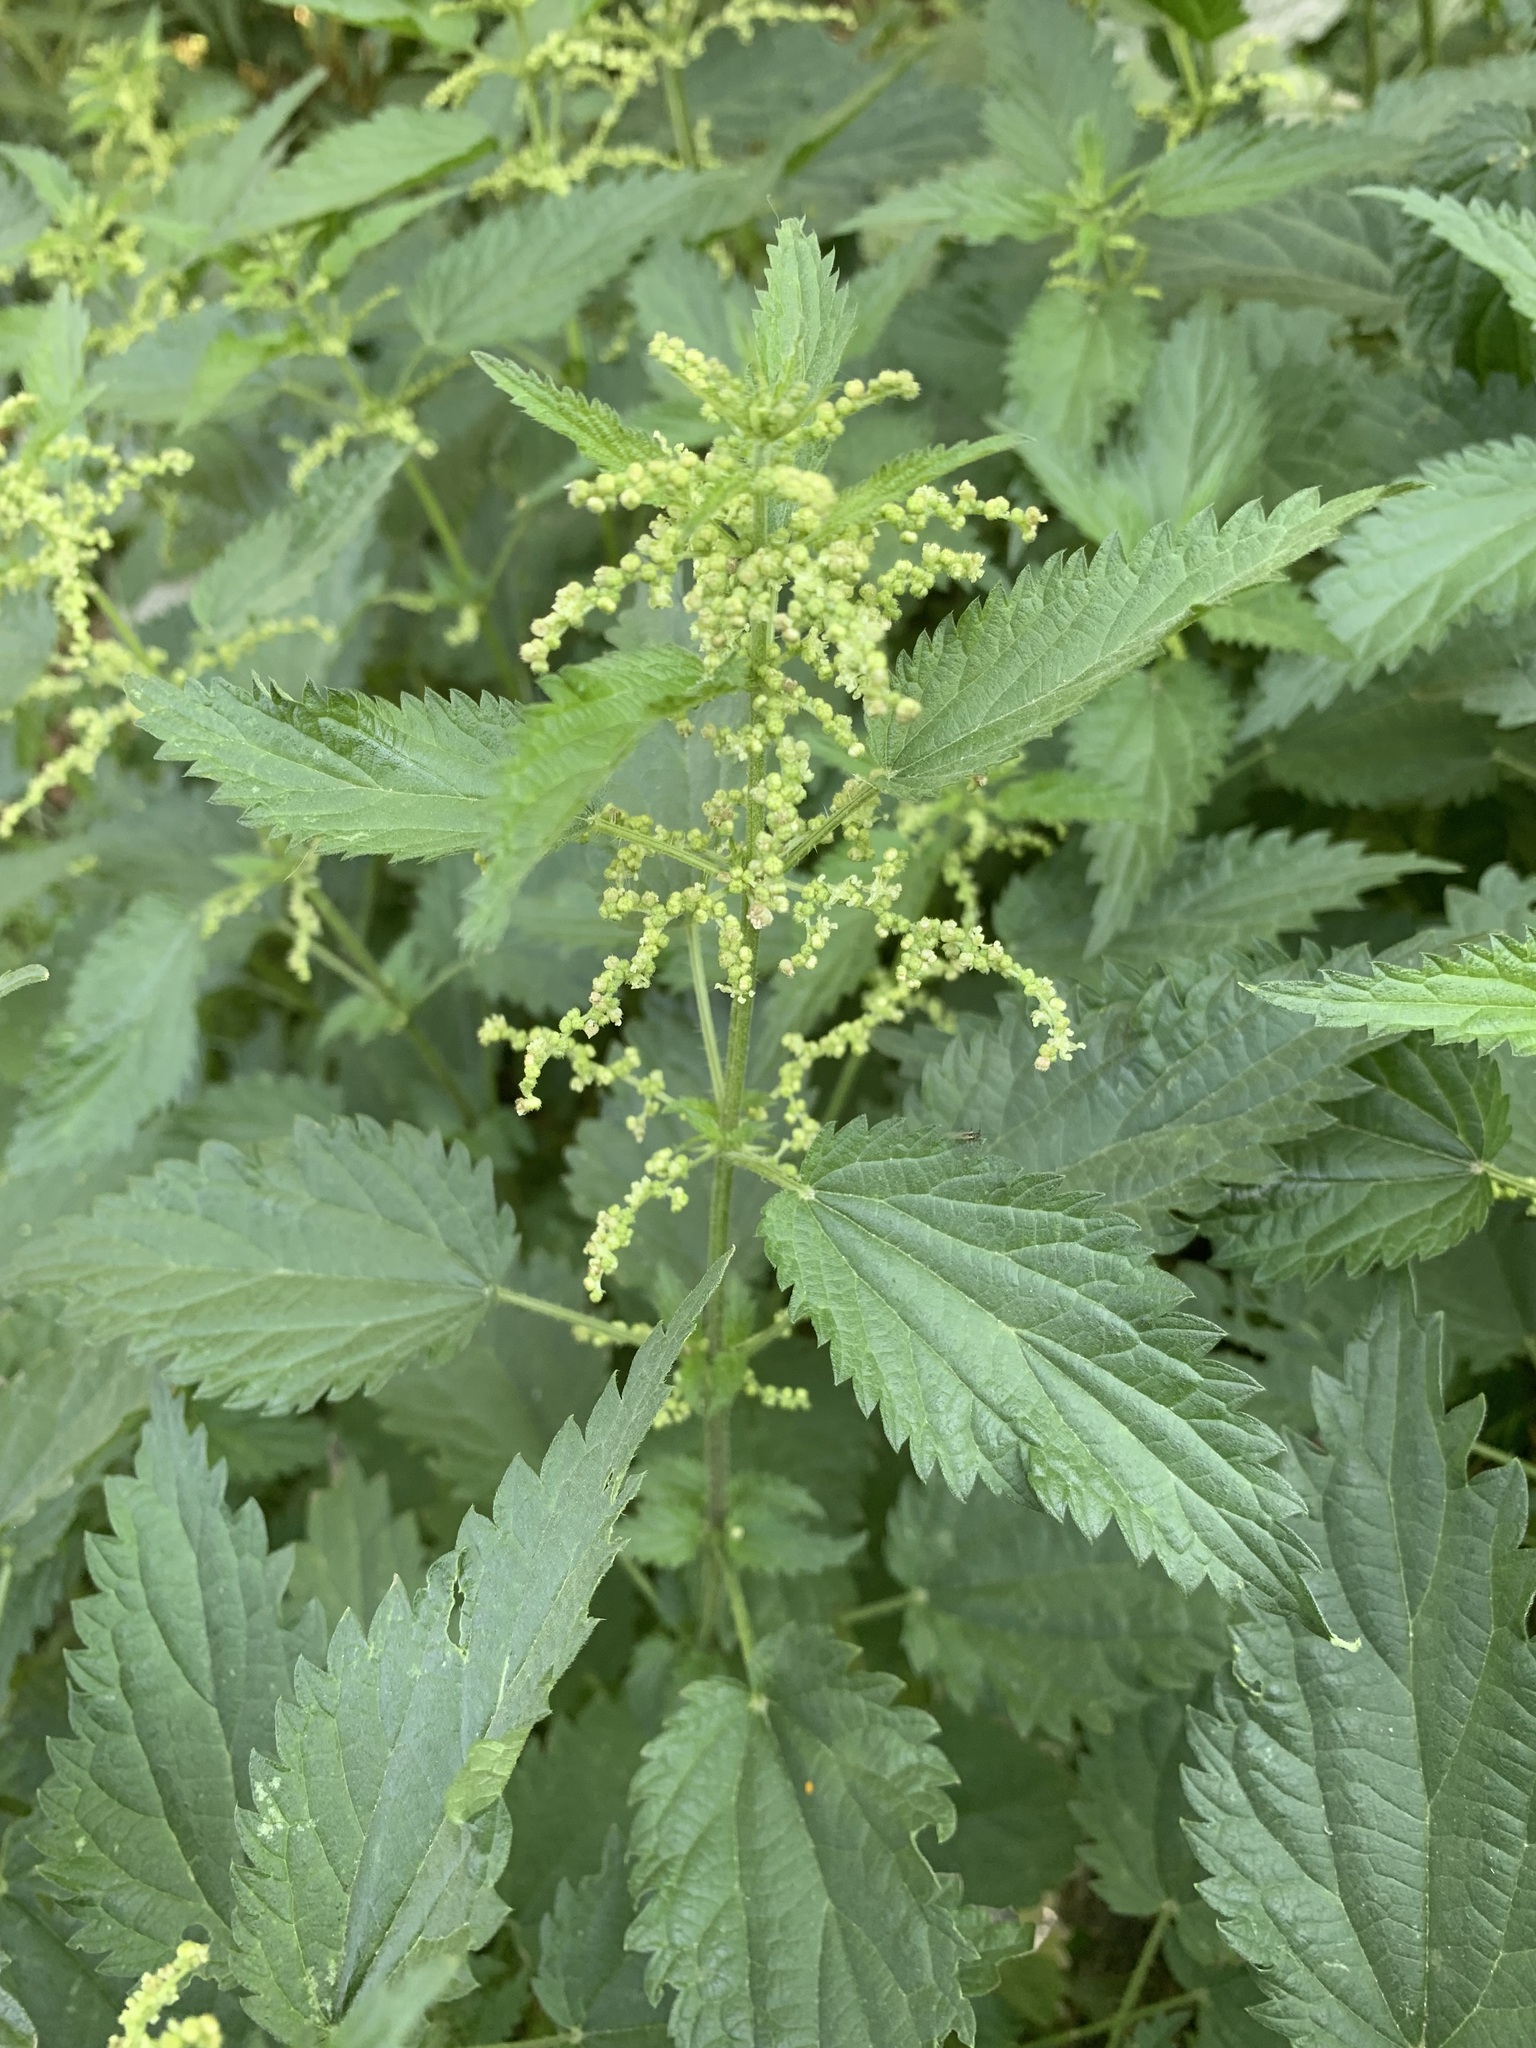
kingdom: Plantae
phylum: Tracheophyta
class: Magnoliopsida
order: Rosales
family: Urticaceae
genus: Urtica
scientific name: Urtica dioica
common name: Common nettle
